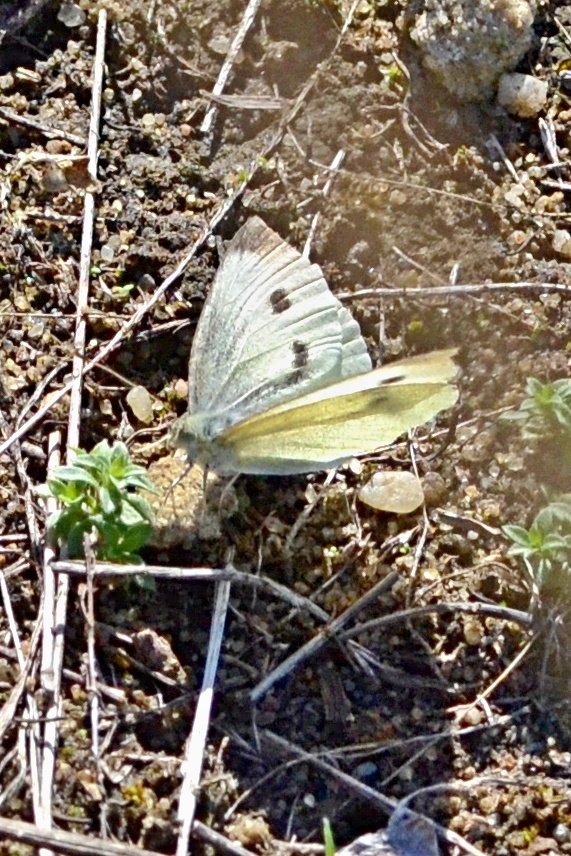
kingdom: Animalia
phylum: Arthropoda
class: Insecta
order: Lepidoptera
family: Pieridae
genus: Pieris
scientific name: Pieris rapae
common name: Small white
